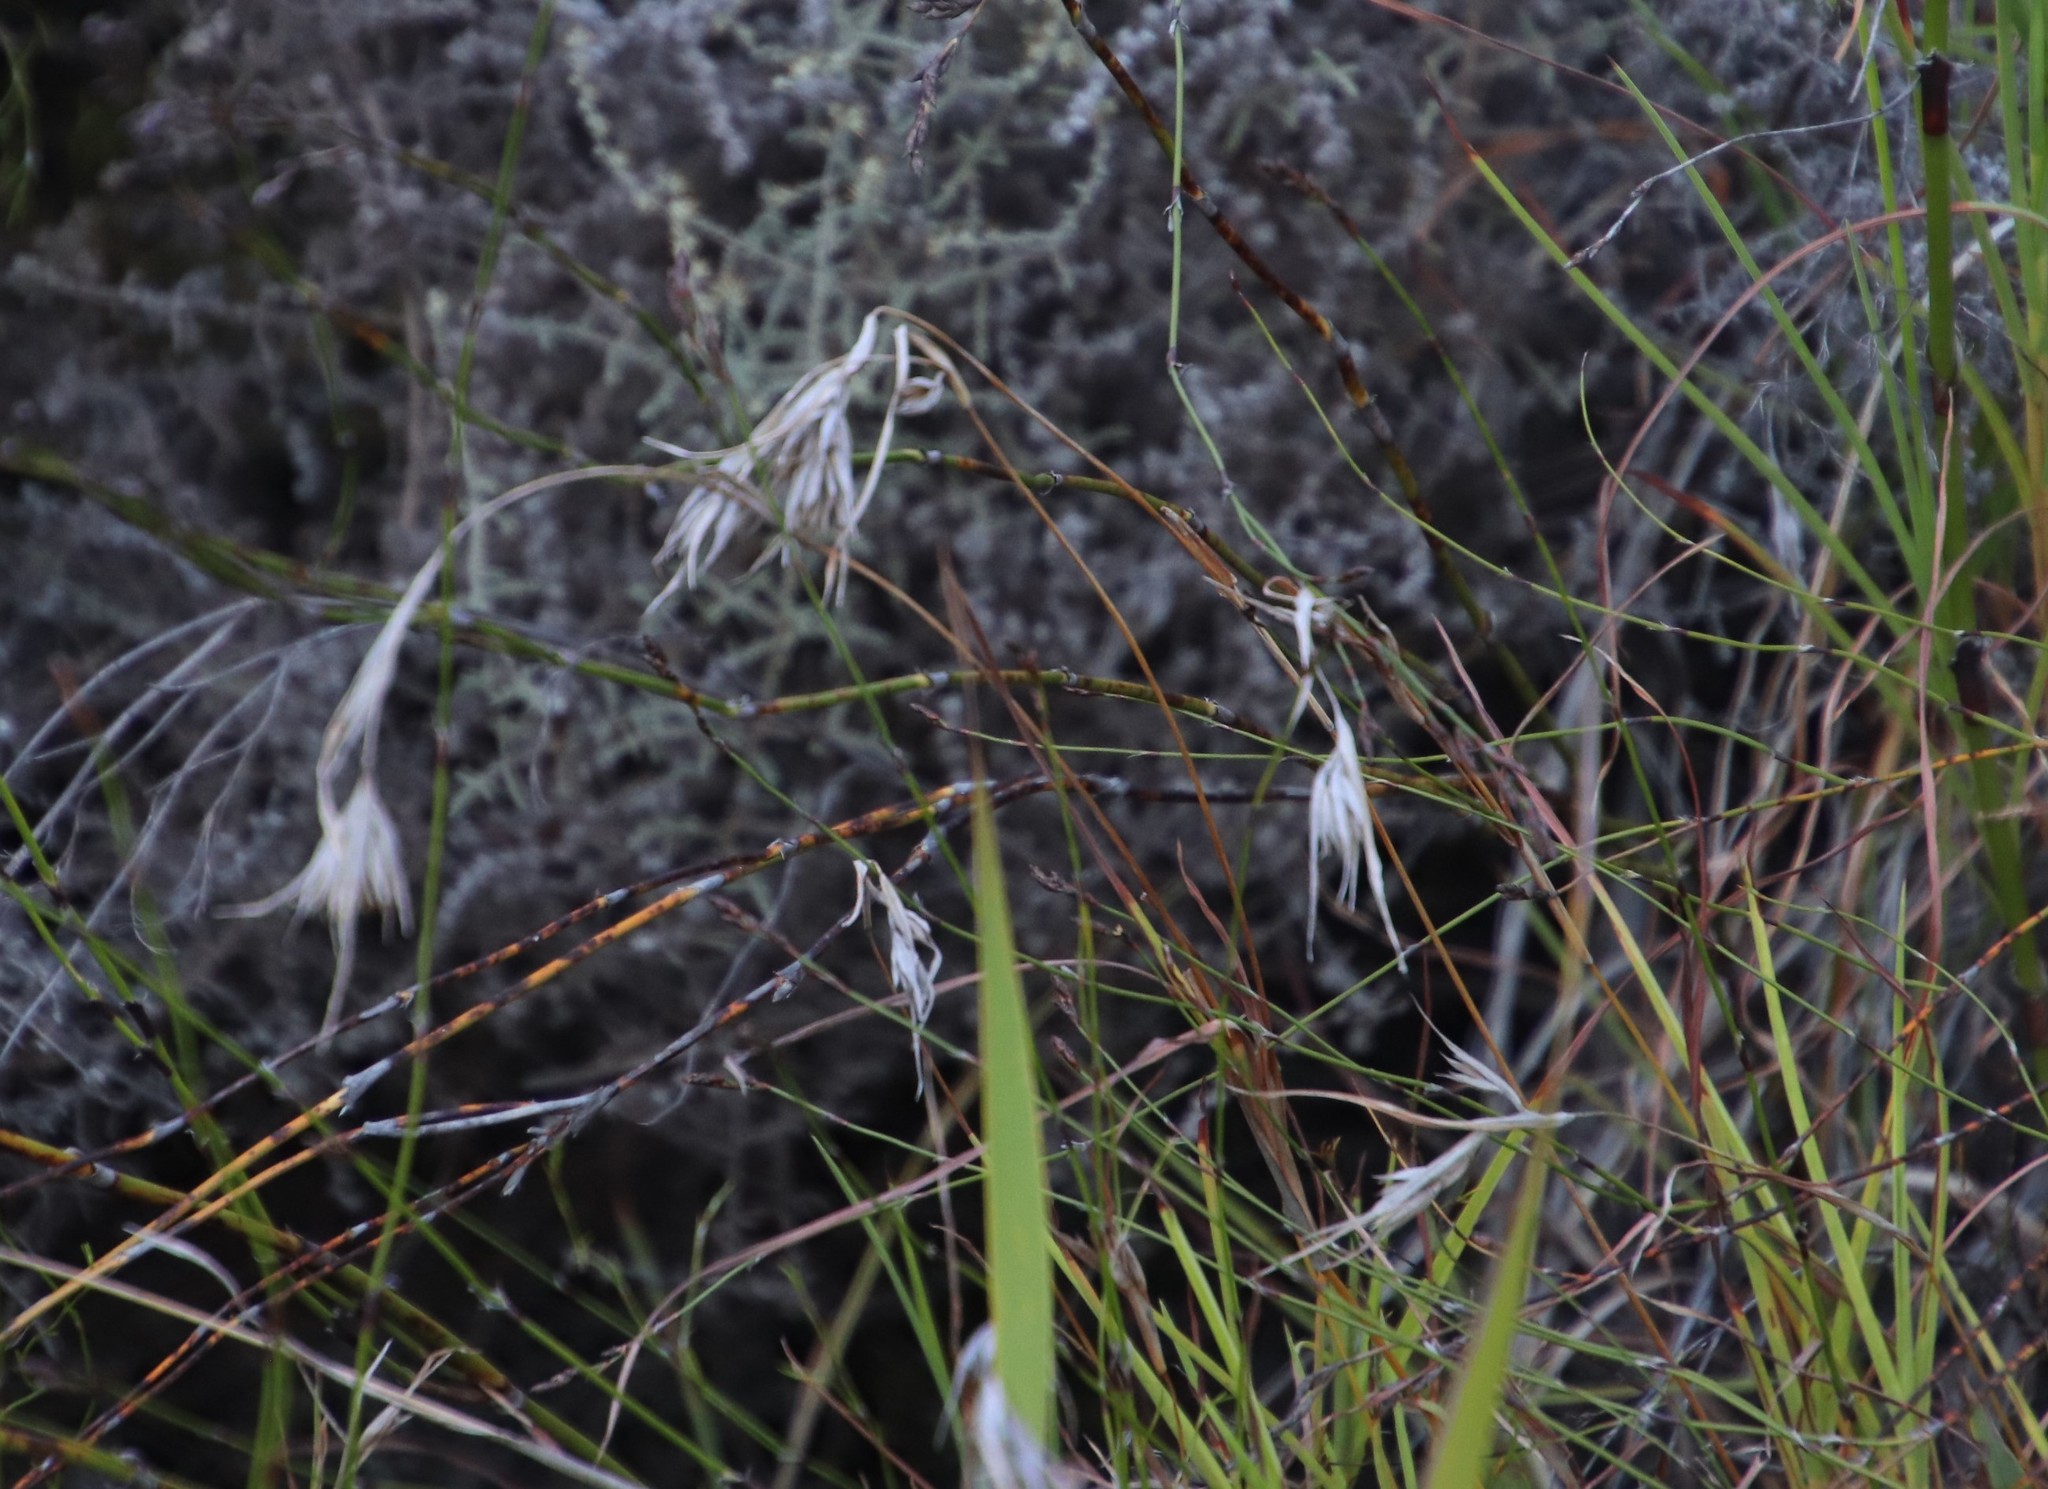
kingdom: Plantae
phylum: Tracheophyta
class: Liliopsida
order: Poales
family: Poaceae
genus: Themeda
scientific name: Themeda triandra
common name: Kangaroo grass
